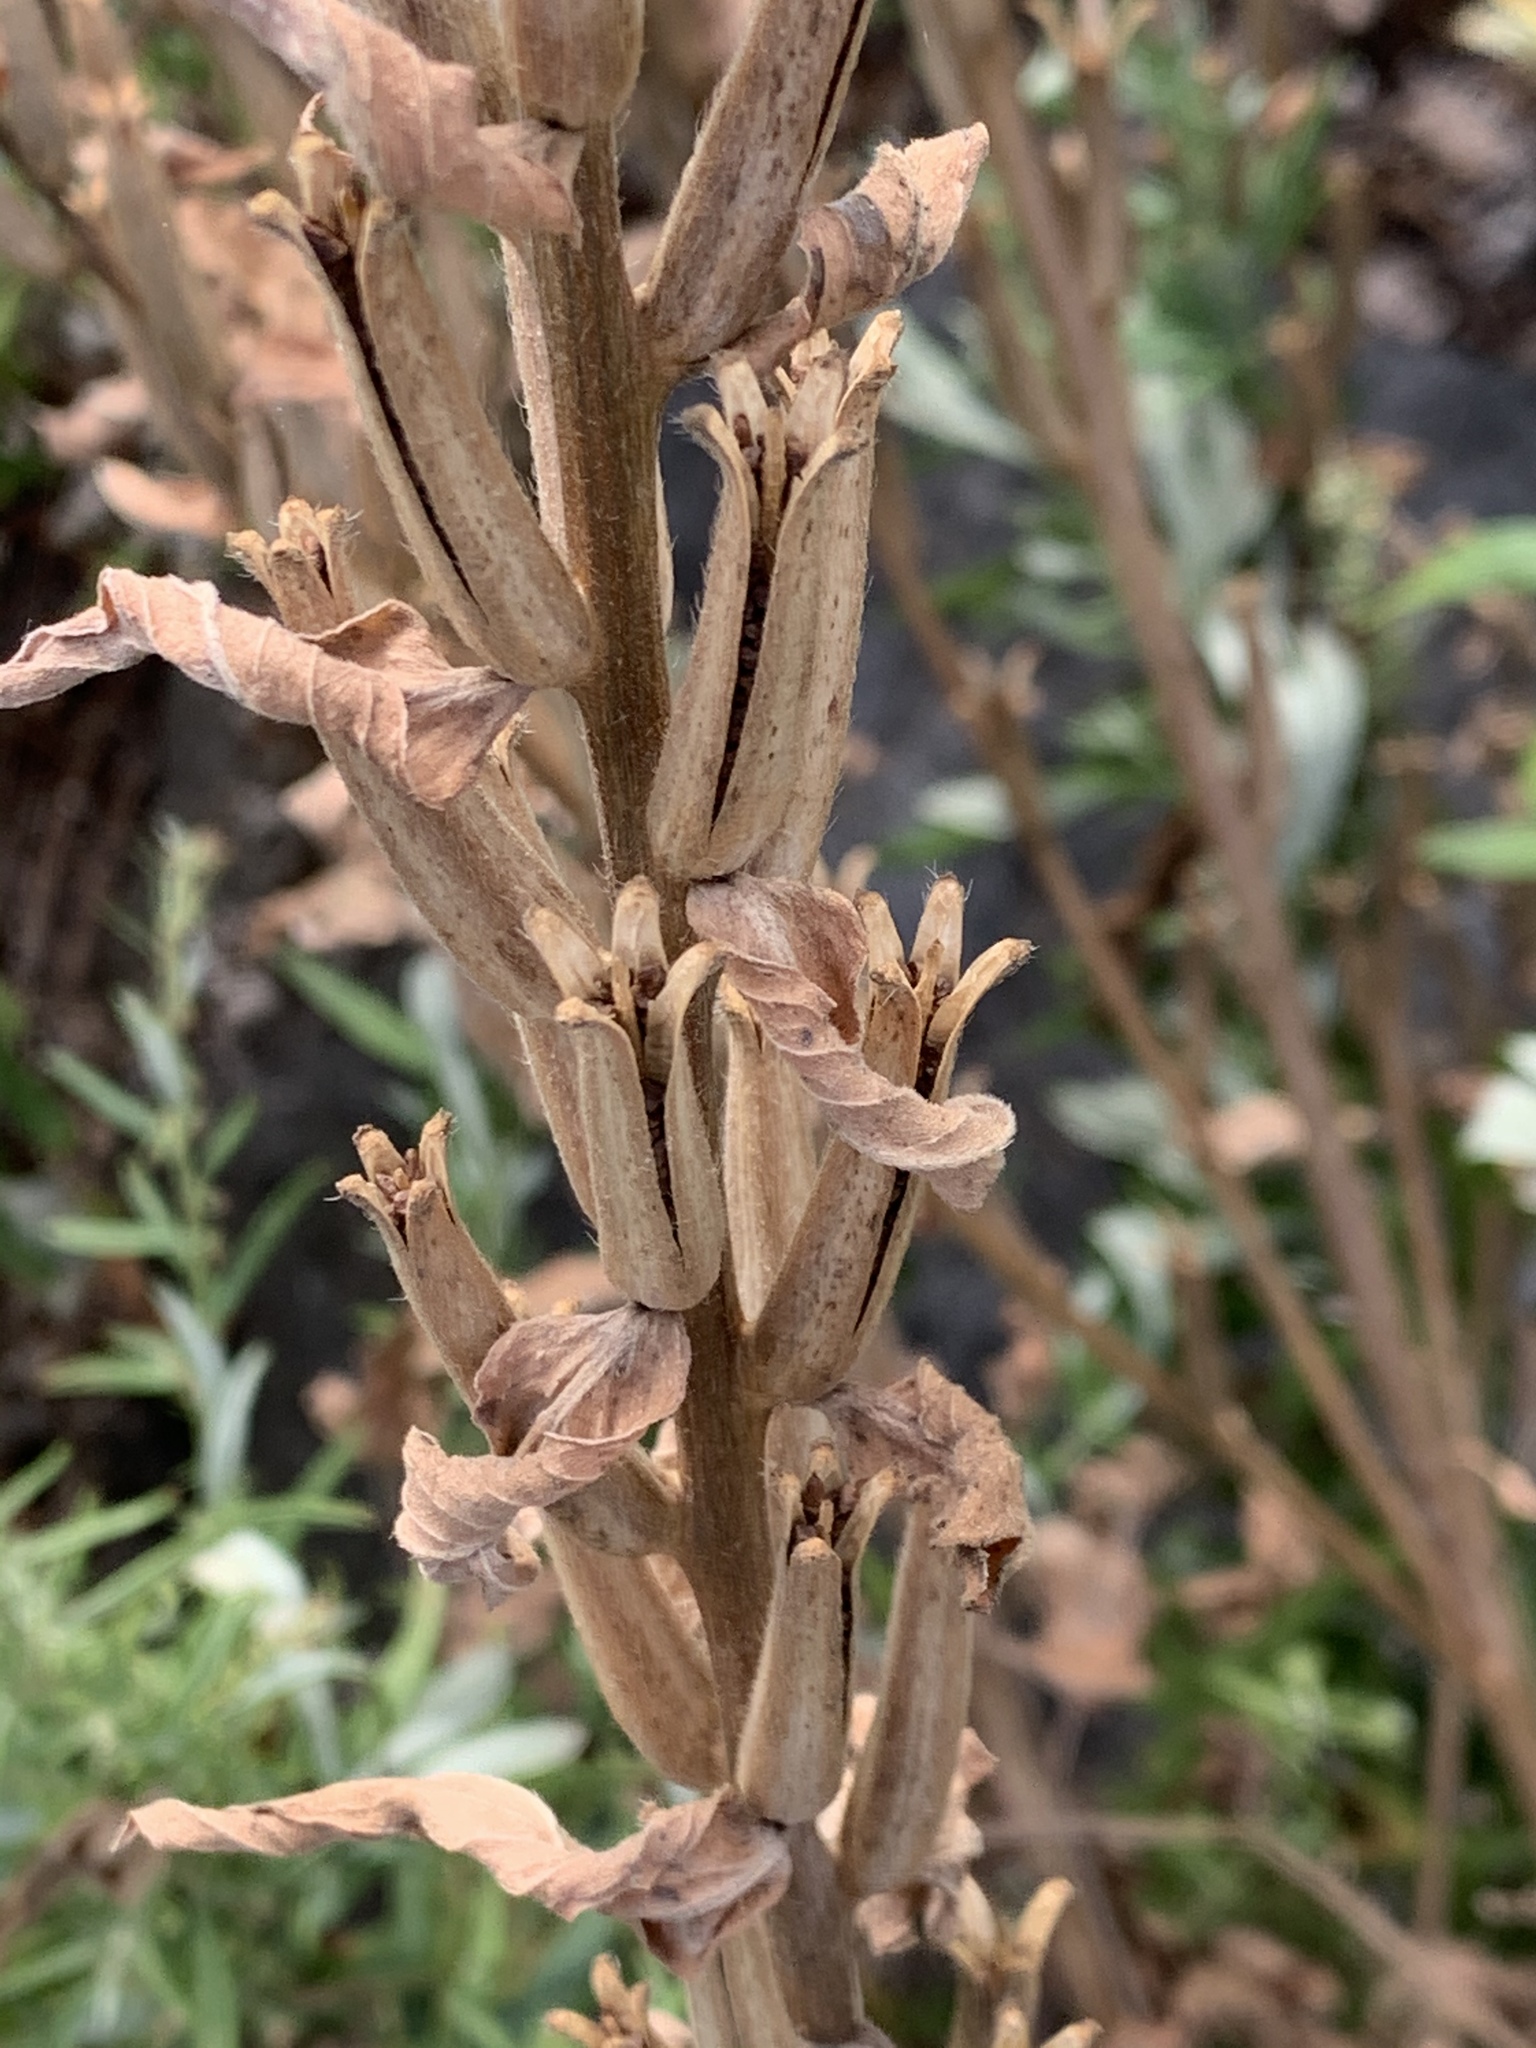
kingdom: Plantae
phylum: Tracheophyta
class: Magnoliopsida
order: Myrtales
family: Onagraceae
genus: Oenothera
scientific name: Oenothera biennis
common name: Common evening-primrose
